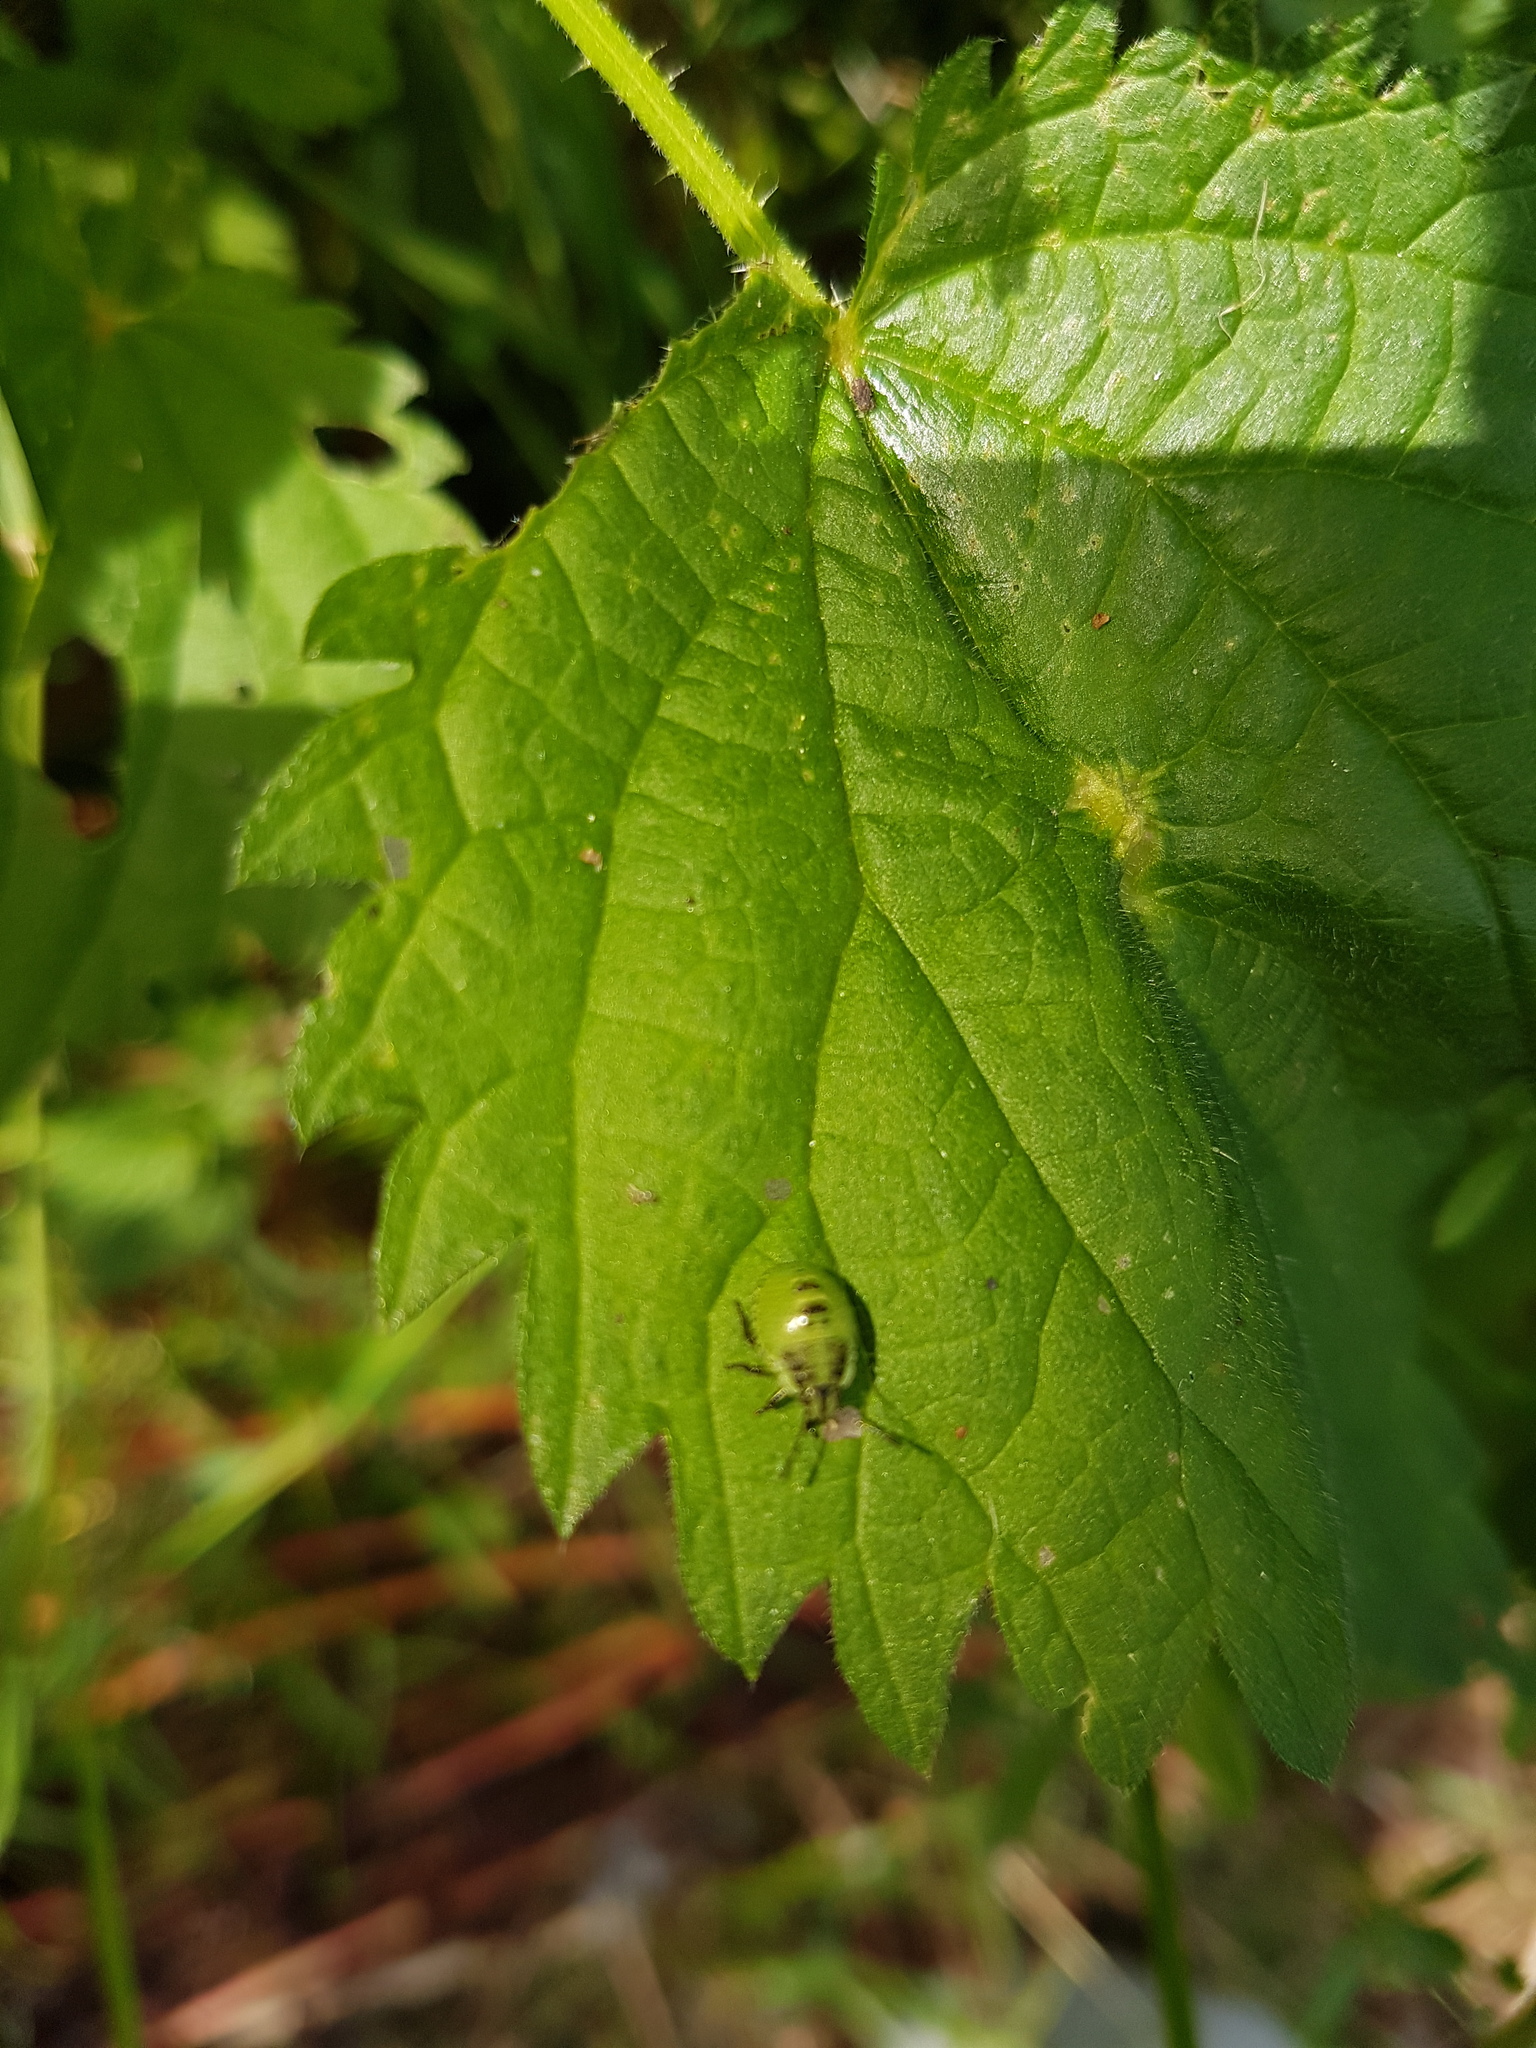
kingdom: Animalia
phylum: Arthropoda
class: Insecta
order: Hemiptera
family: Pentatomidae
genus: Palomena
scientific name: Palomena prasina
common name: Green shieldbug
